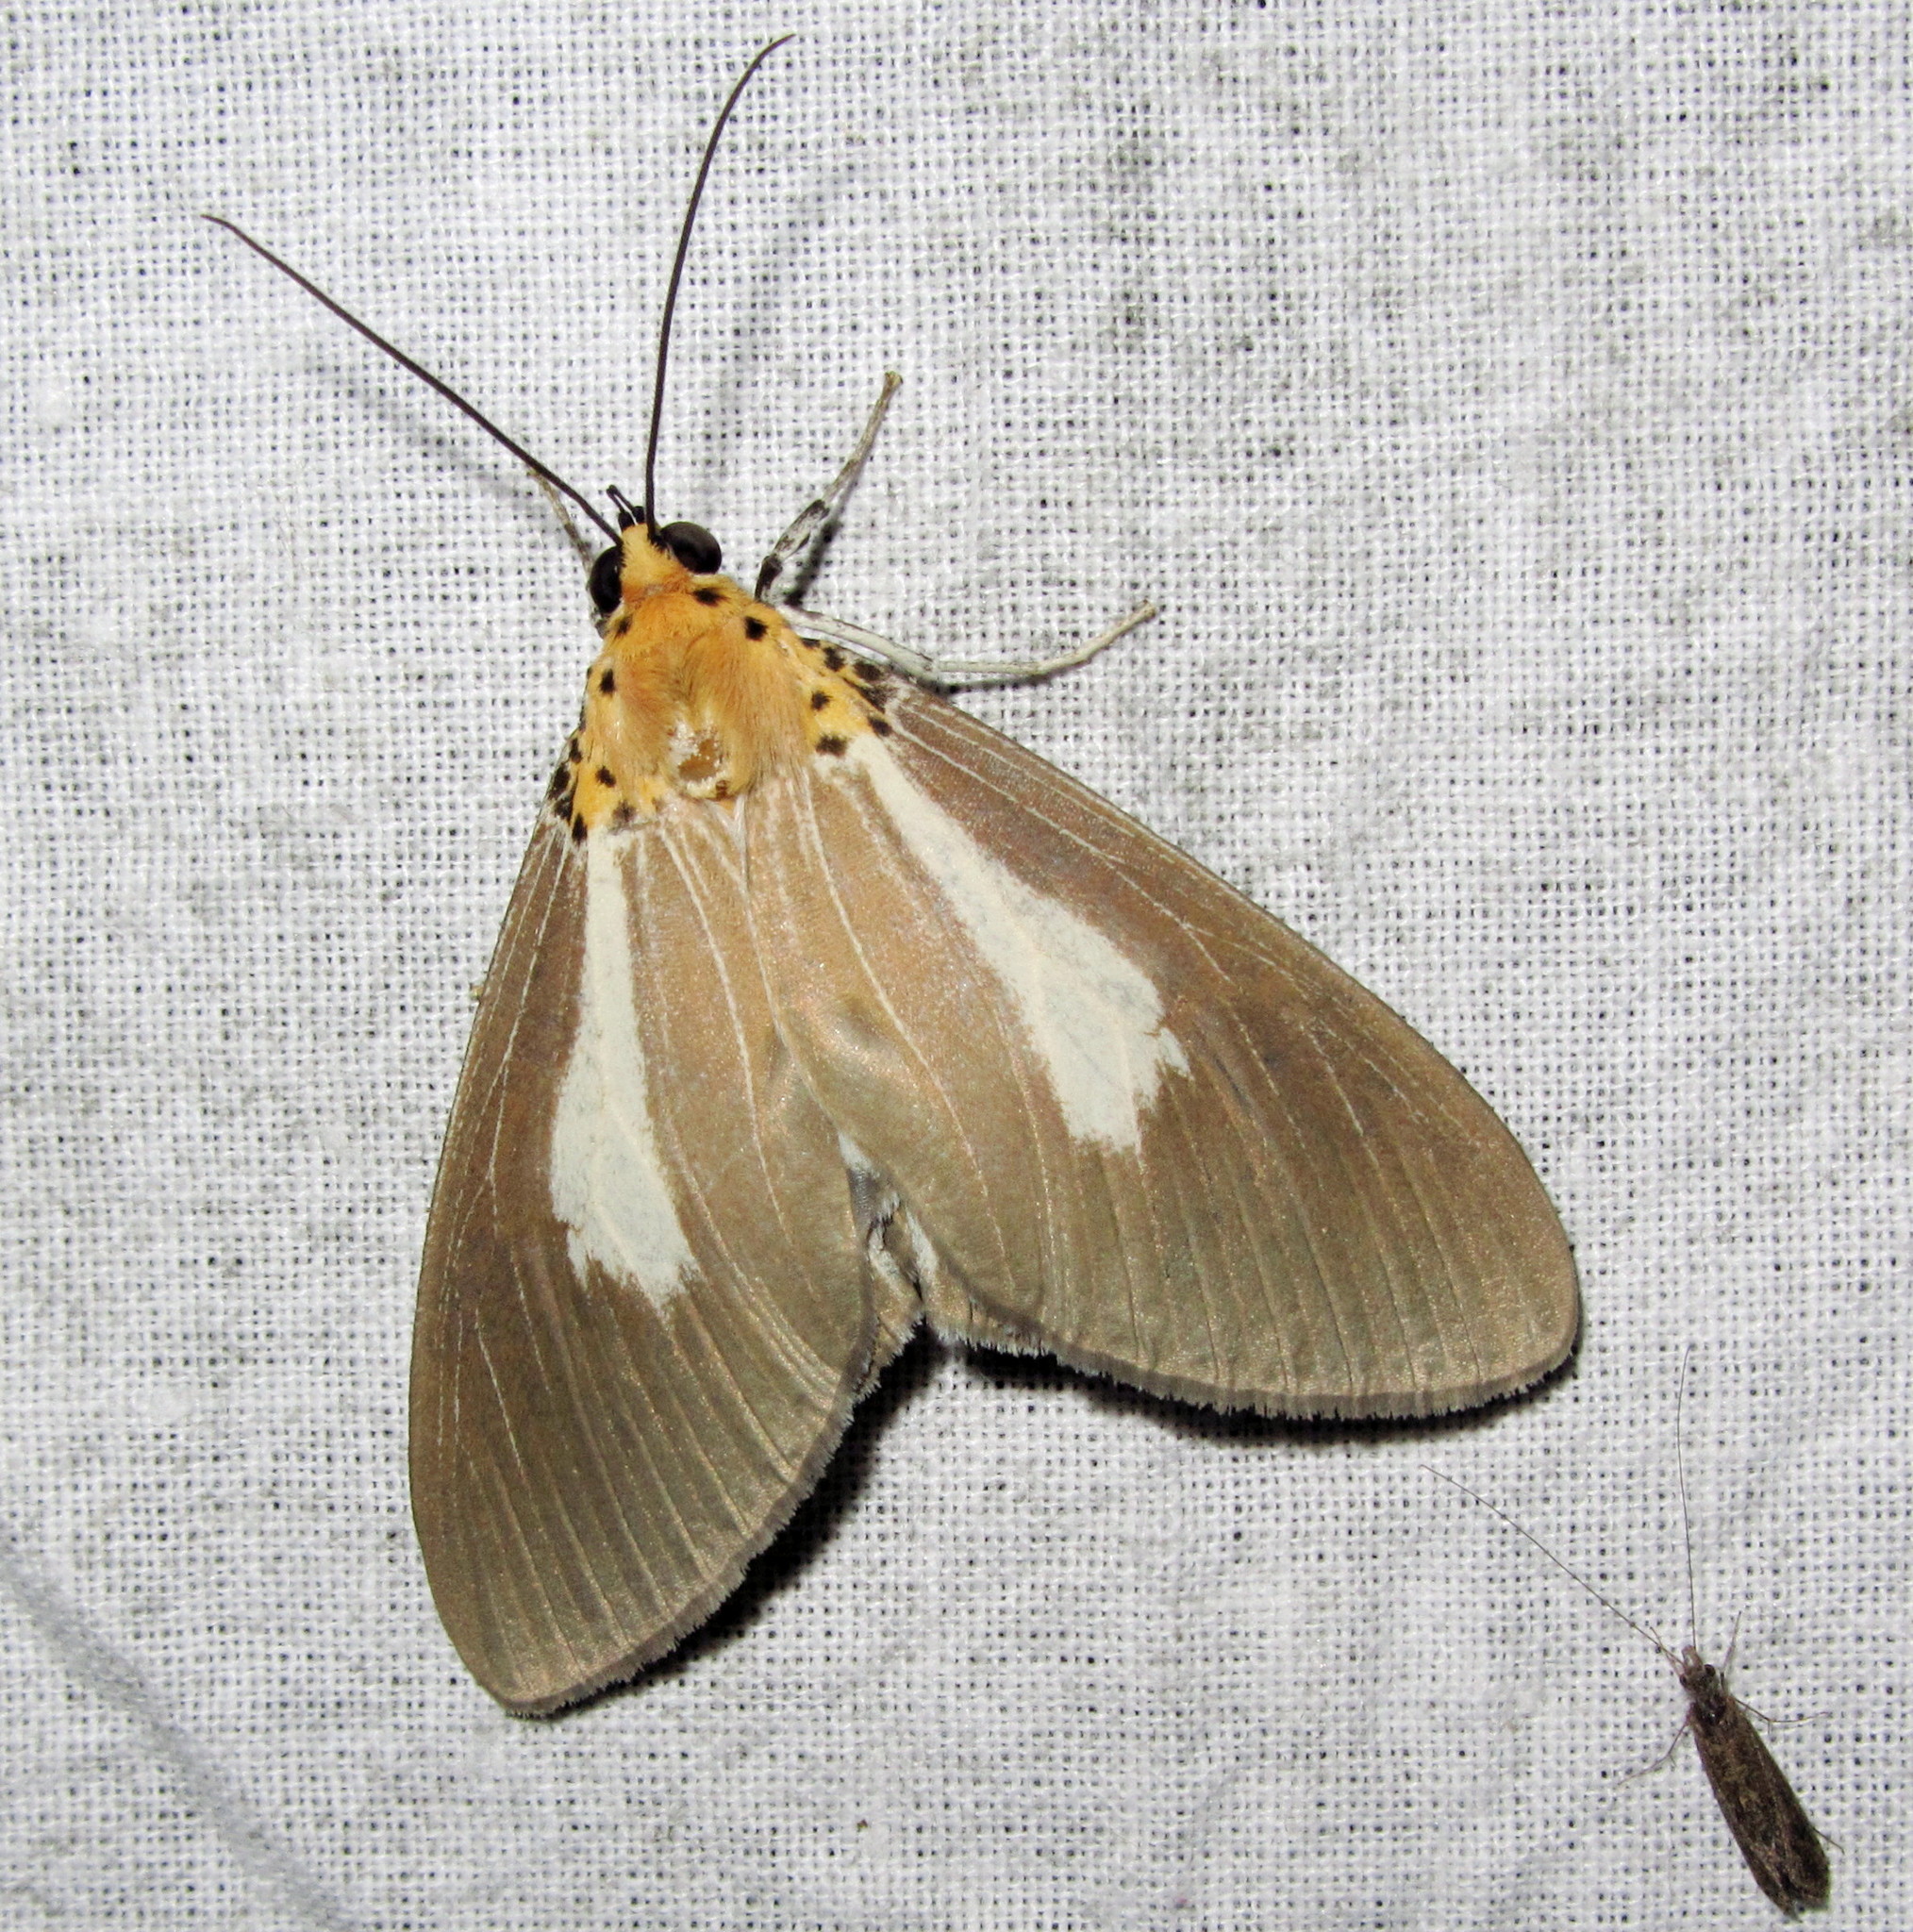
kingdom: Animalia
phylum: Arthropoda
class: Insecta
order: Lepidoptera
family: Erebidae
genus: Asota
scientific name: Asota heliconia
